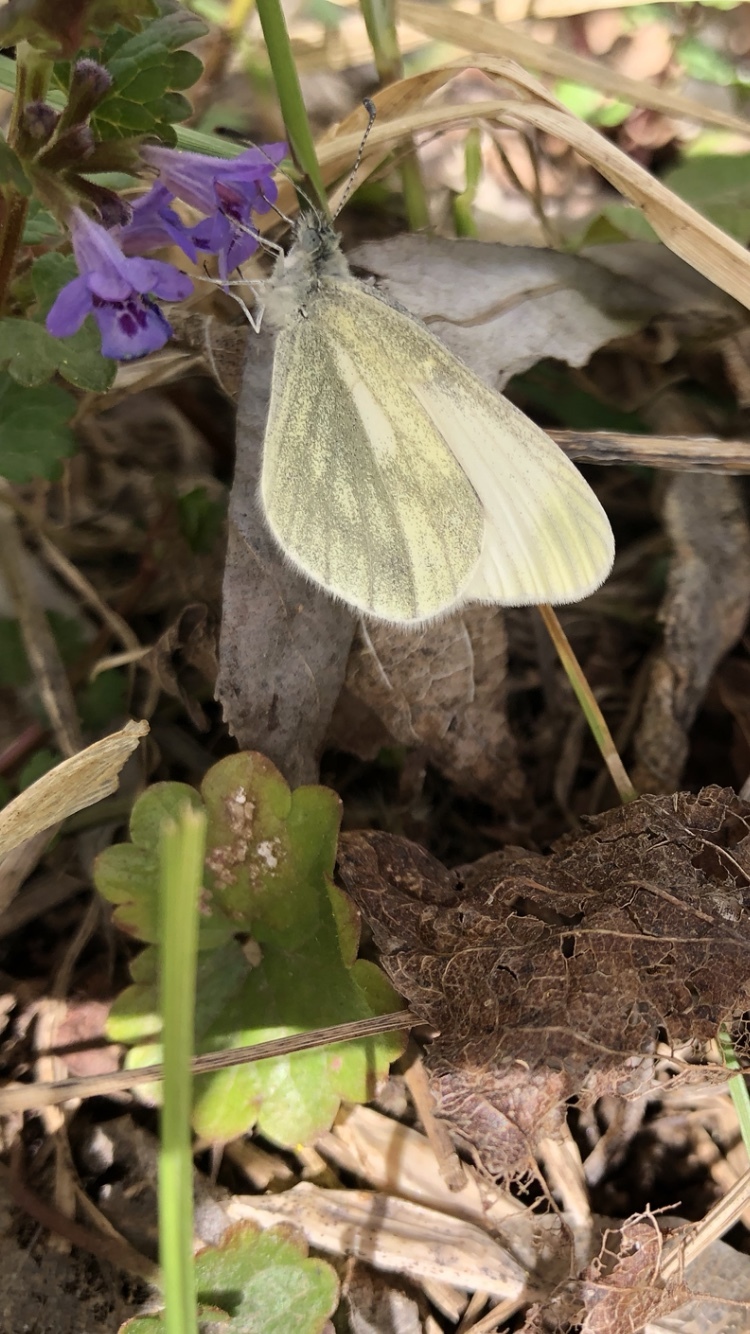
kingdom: Animalia
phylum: Arthropoda
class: Insecta
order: Lepidoptera
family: Pieridae
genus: Leptidea
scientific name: Leptidea
